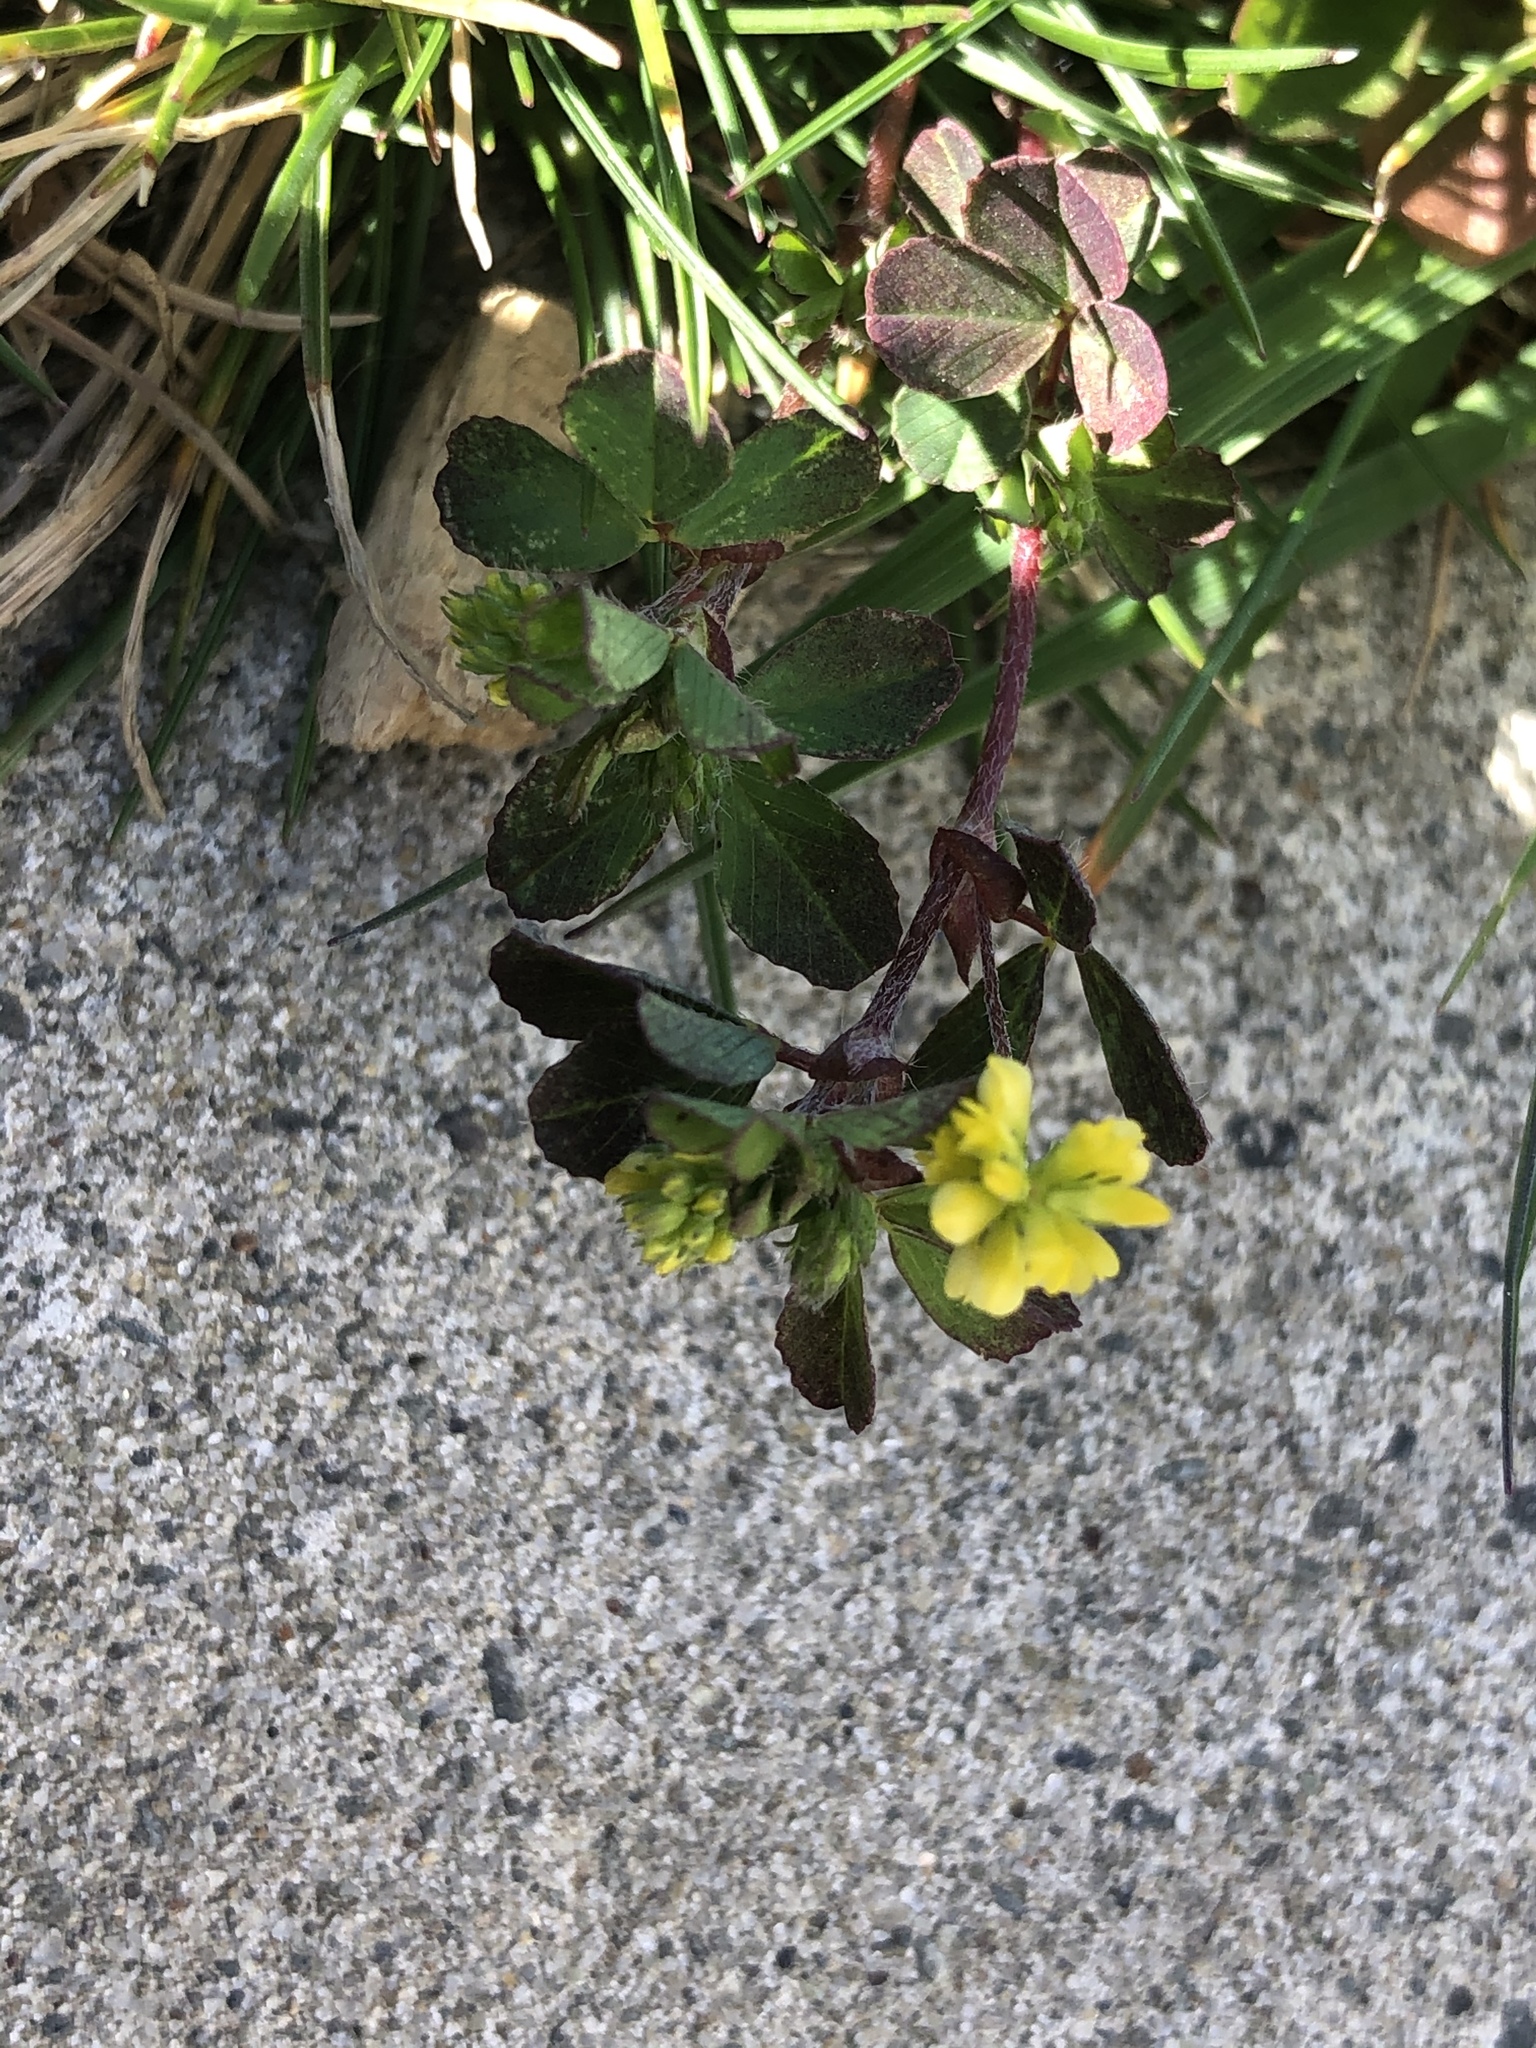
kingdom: Plantae
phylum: Tracheophyta
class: Magnoliopsida
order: Fabales
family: Fabaceae
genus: Trifolium
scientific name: Trifolium dubium
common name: Suckling clover
